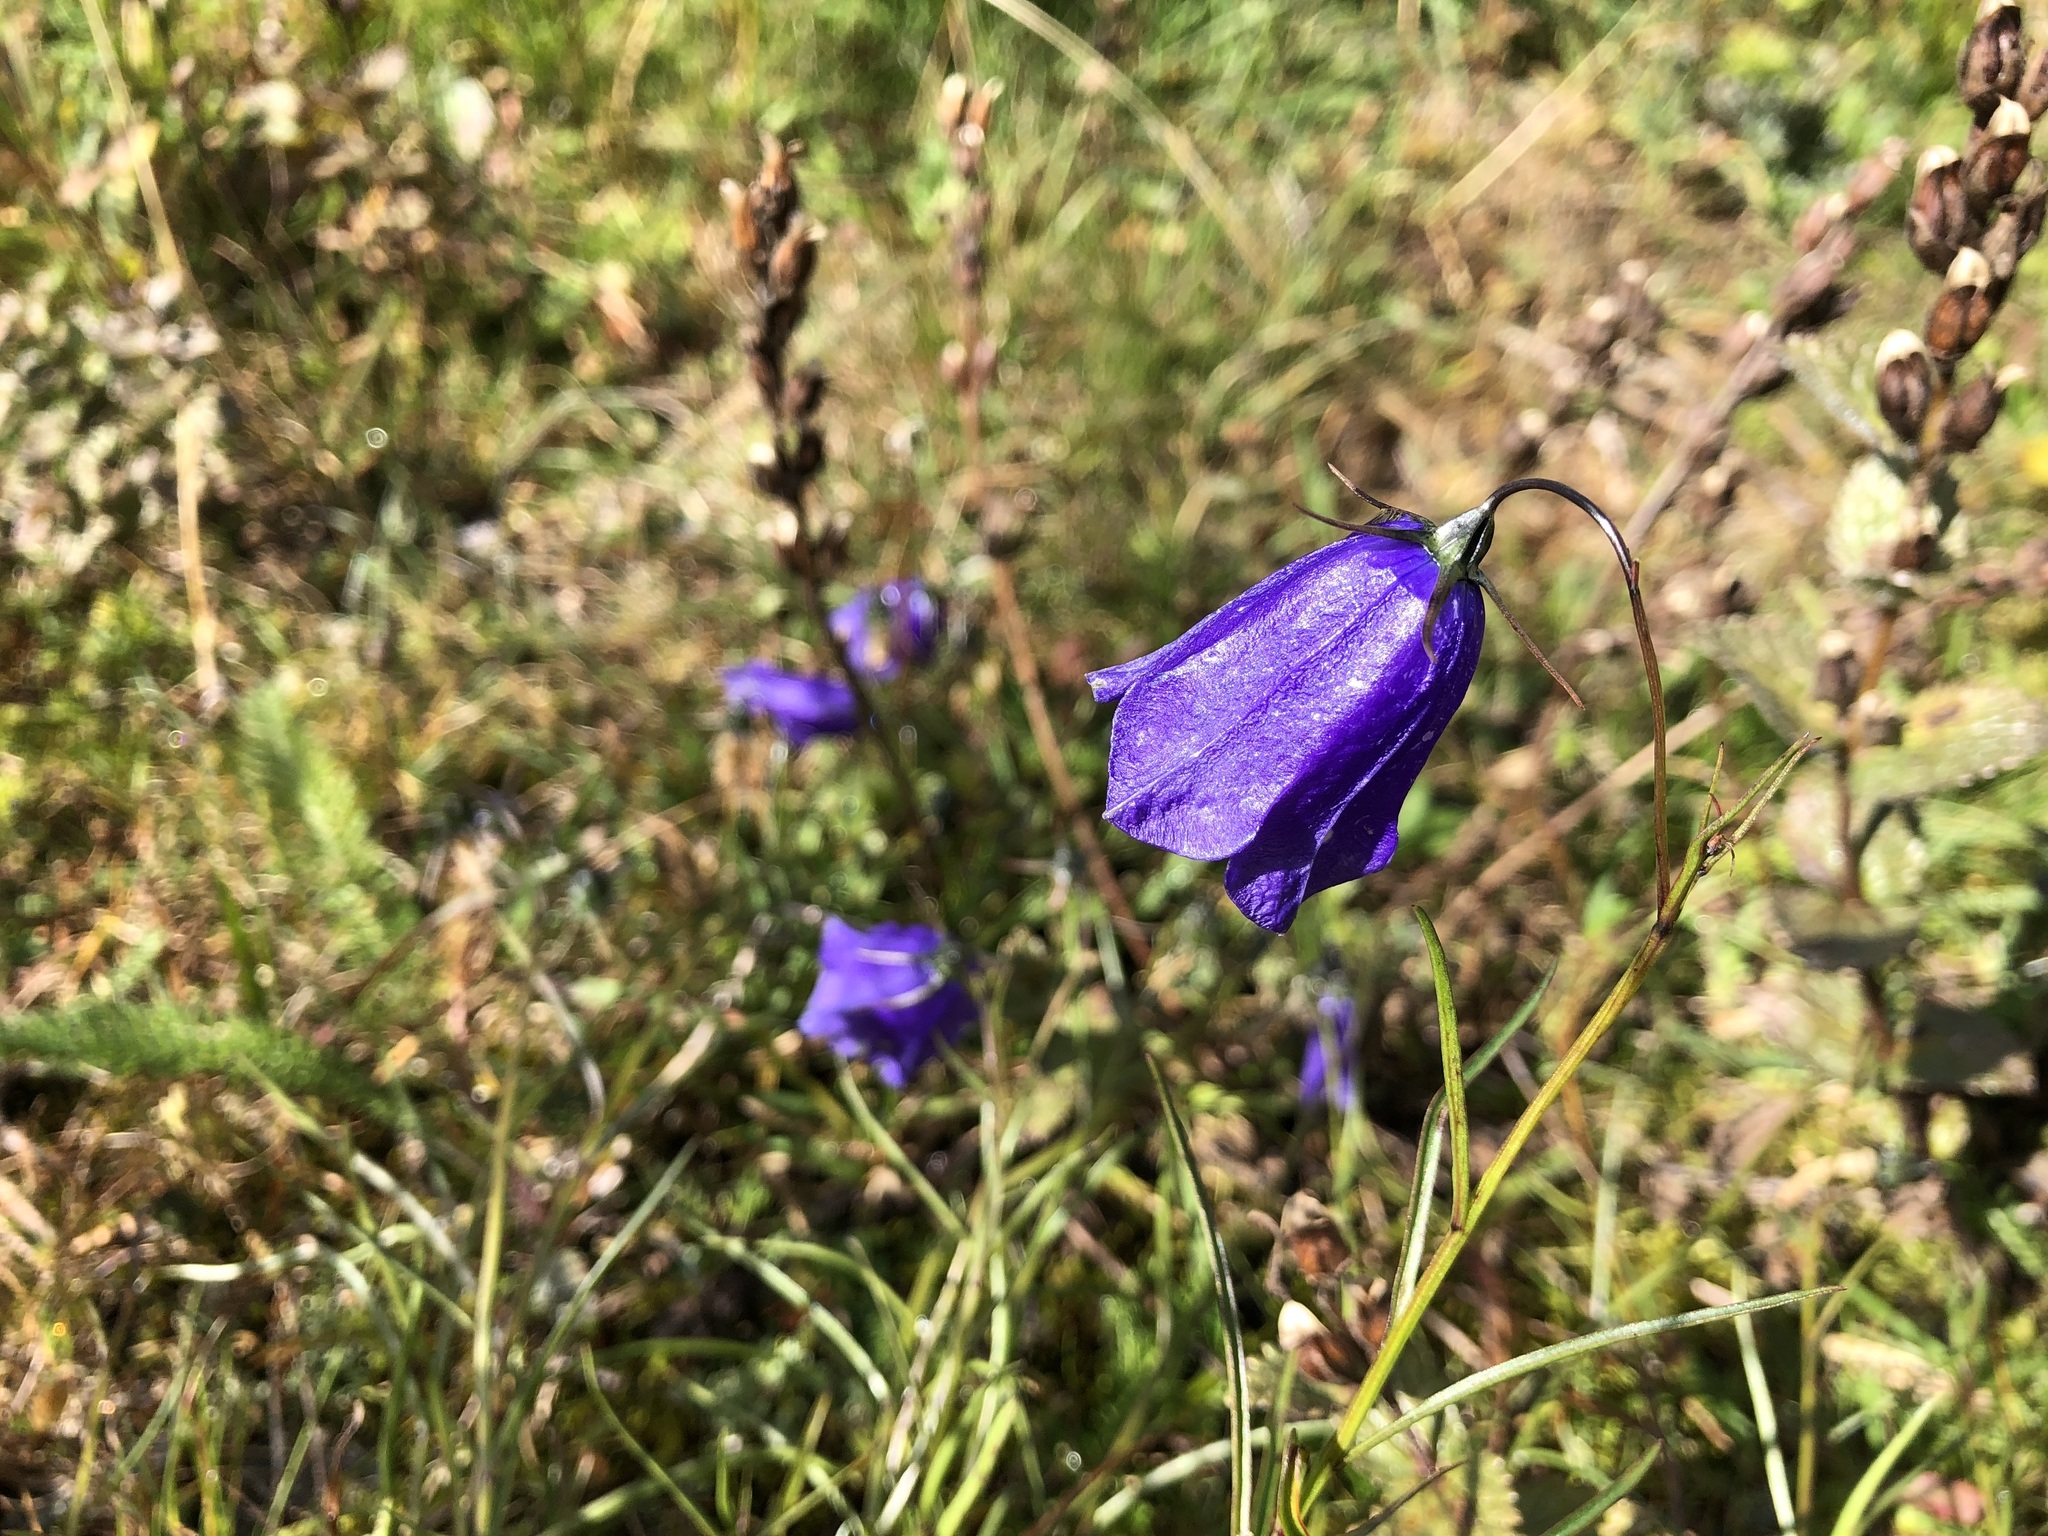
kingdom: Plantae
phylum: Tracheophyta
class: Magnoliopsida
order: Asterales
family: Campanulaceae
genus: Campanula
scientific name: Campanula scheuchzeri
